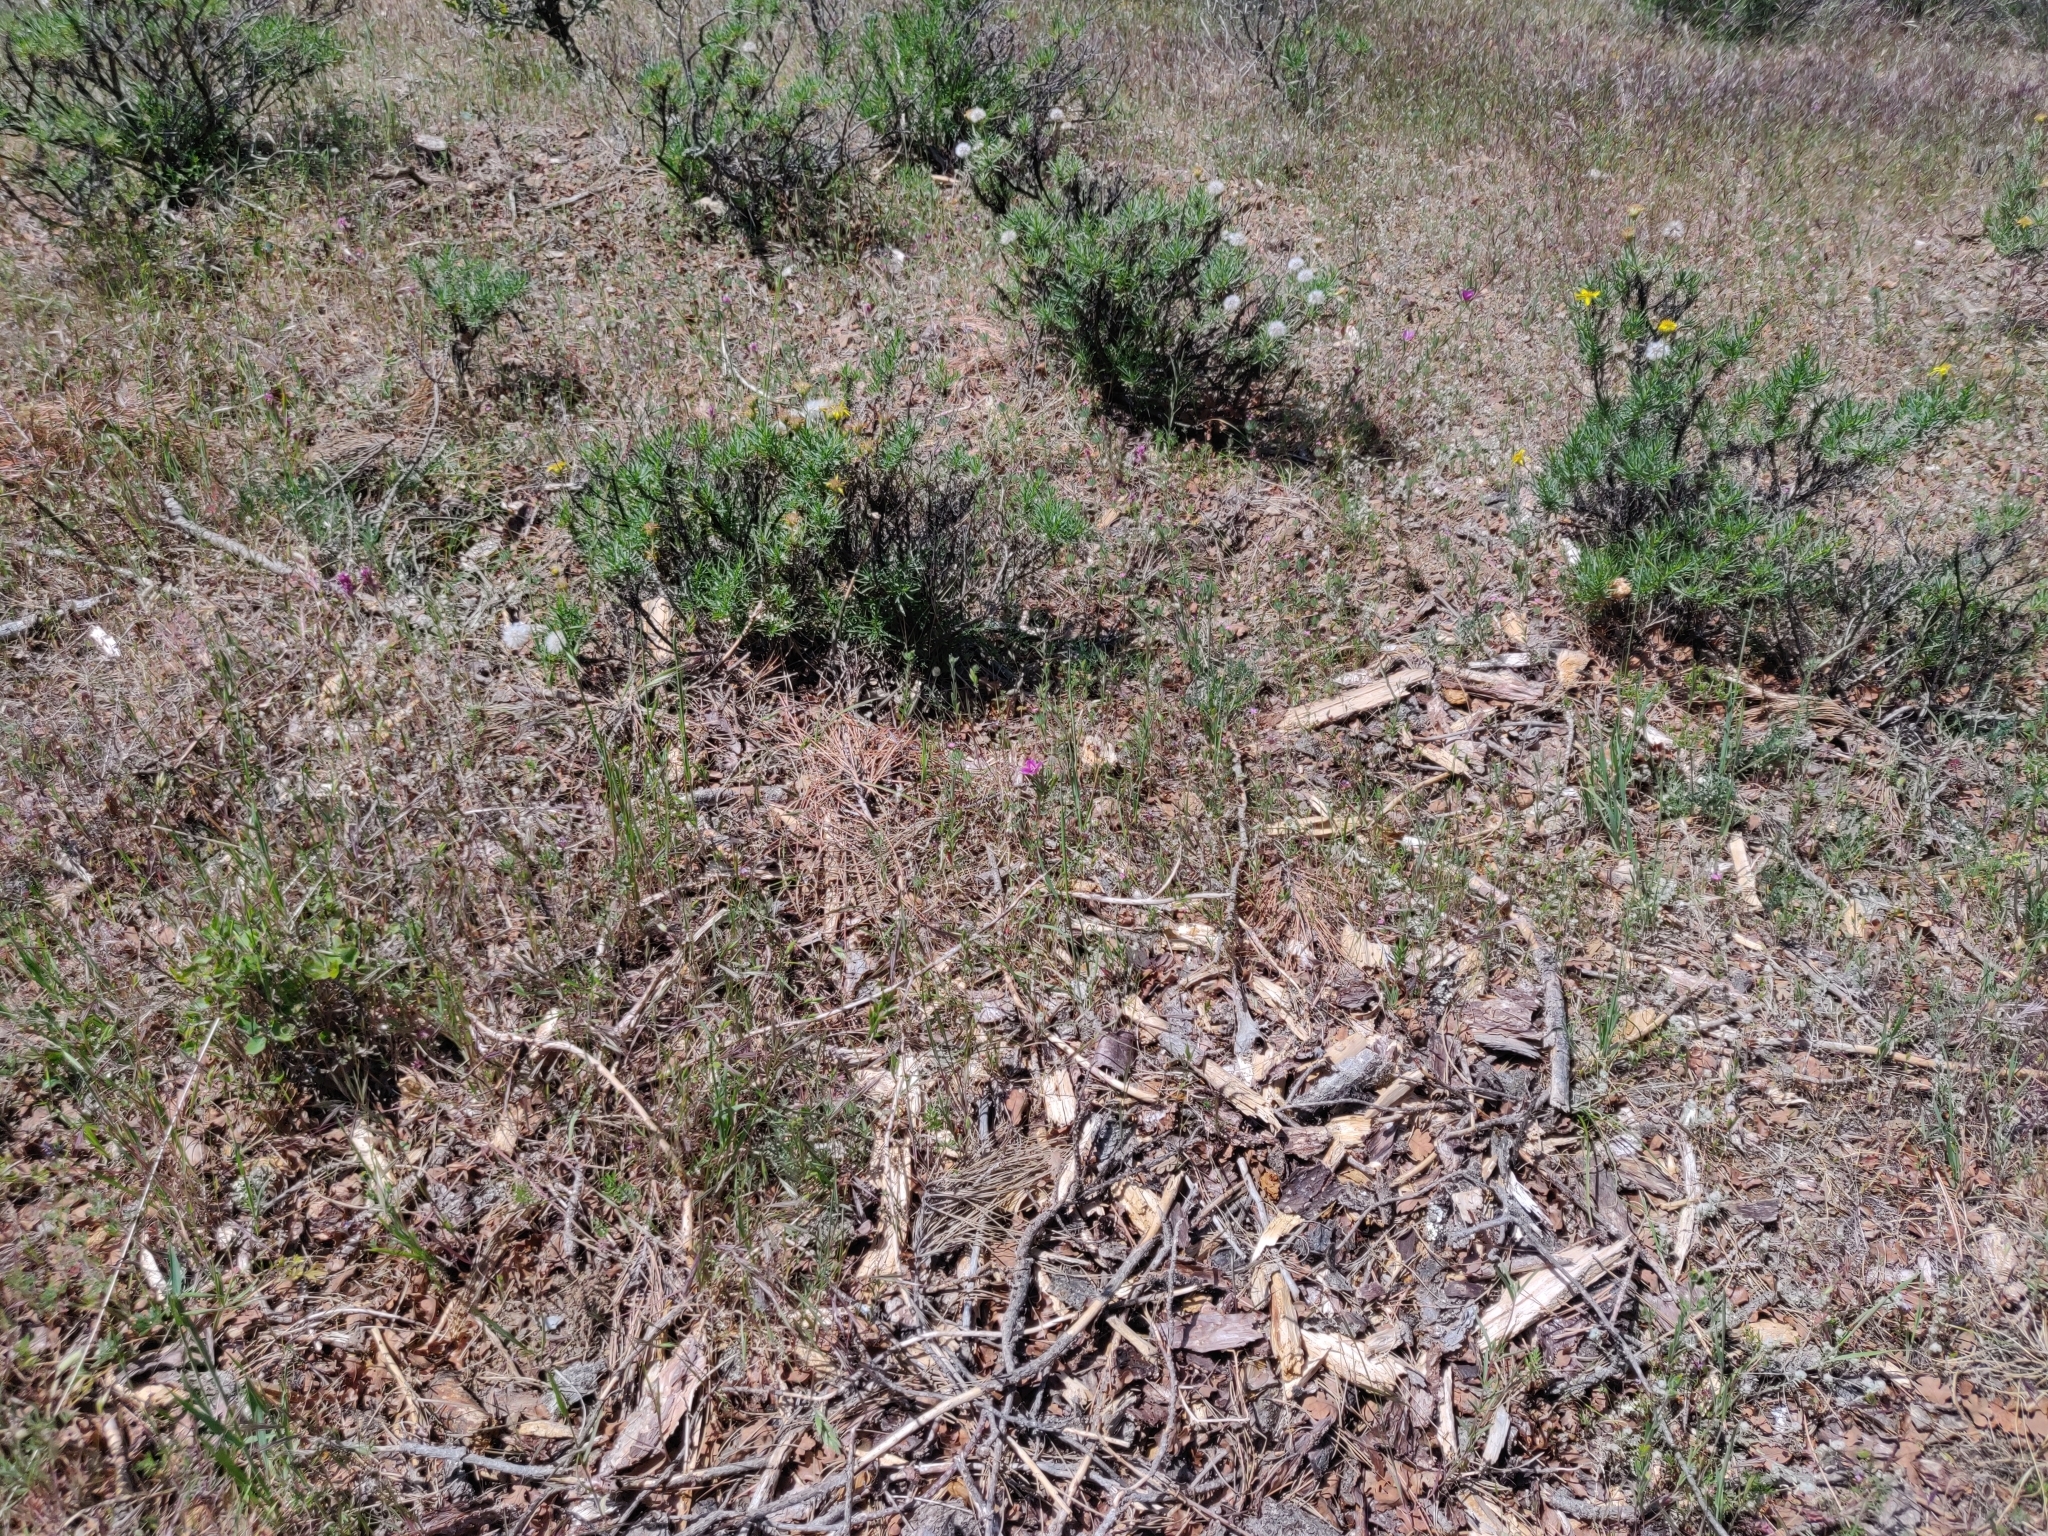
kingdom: Plantae
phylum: Tracheophyta
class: Magnoliopsida
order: Myrtales
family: Onagraceae
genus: Clarkia
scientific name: Clarkia purpurea
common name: Purple clarkia
